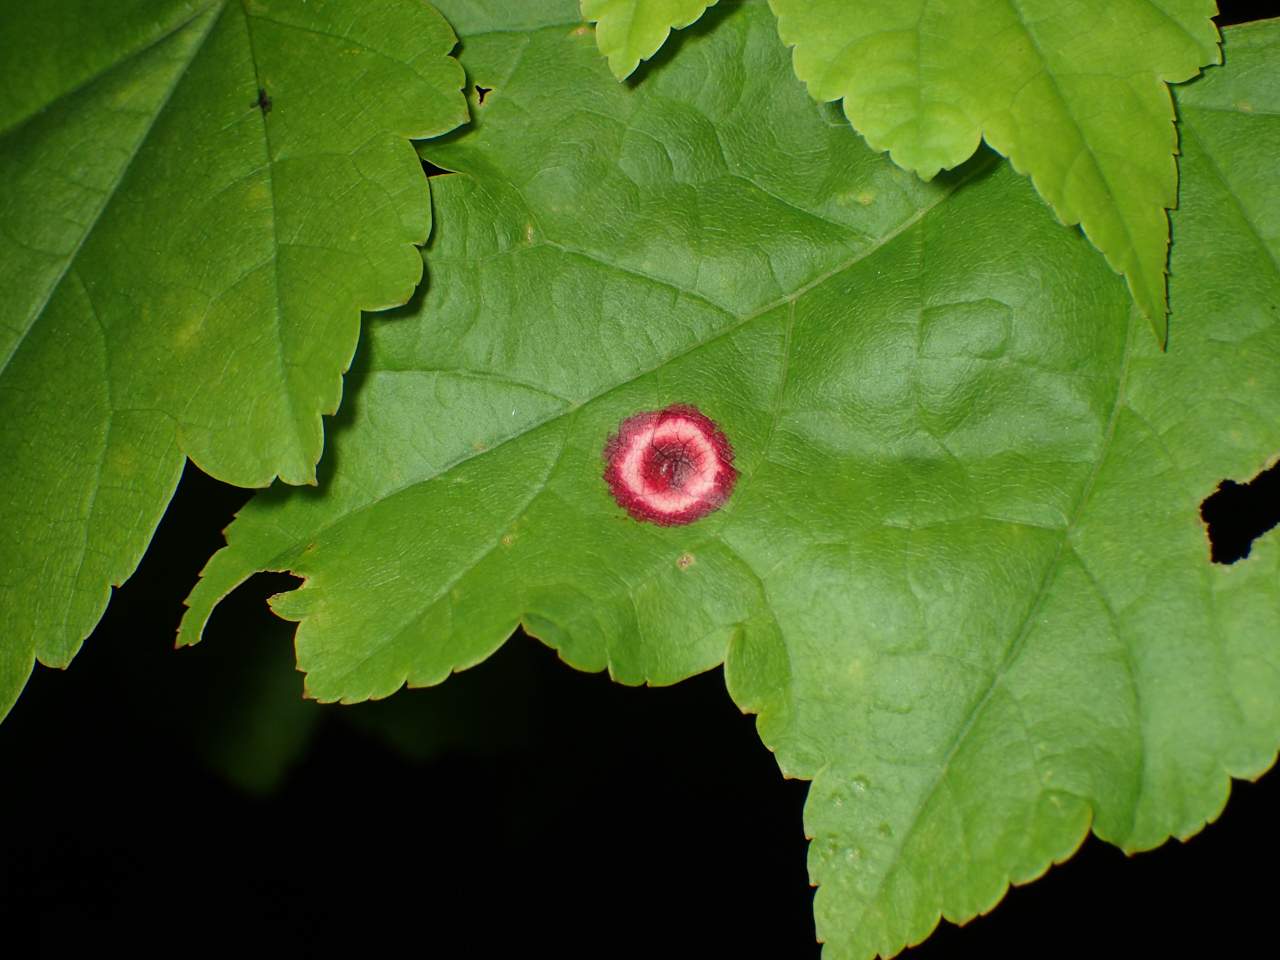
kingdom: Animalia
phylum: Arthropoda
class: Insecta
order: Diptera
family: Cecidomyiidae
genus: Acericecis
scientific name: Acericecis ocellaris
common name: Ocellate gall midge
